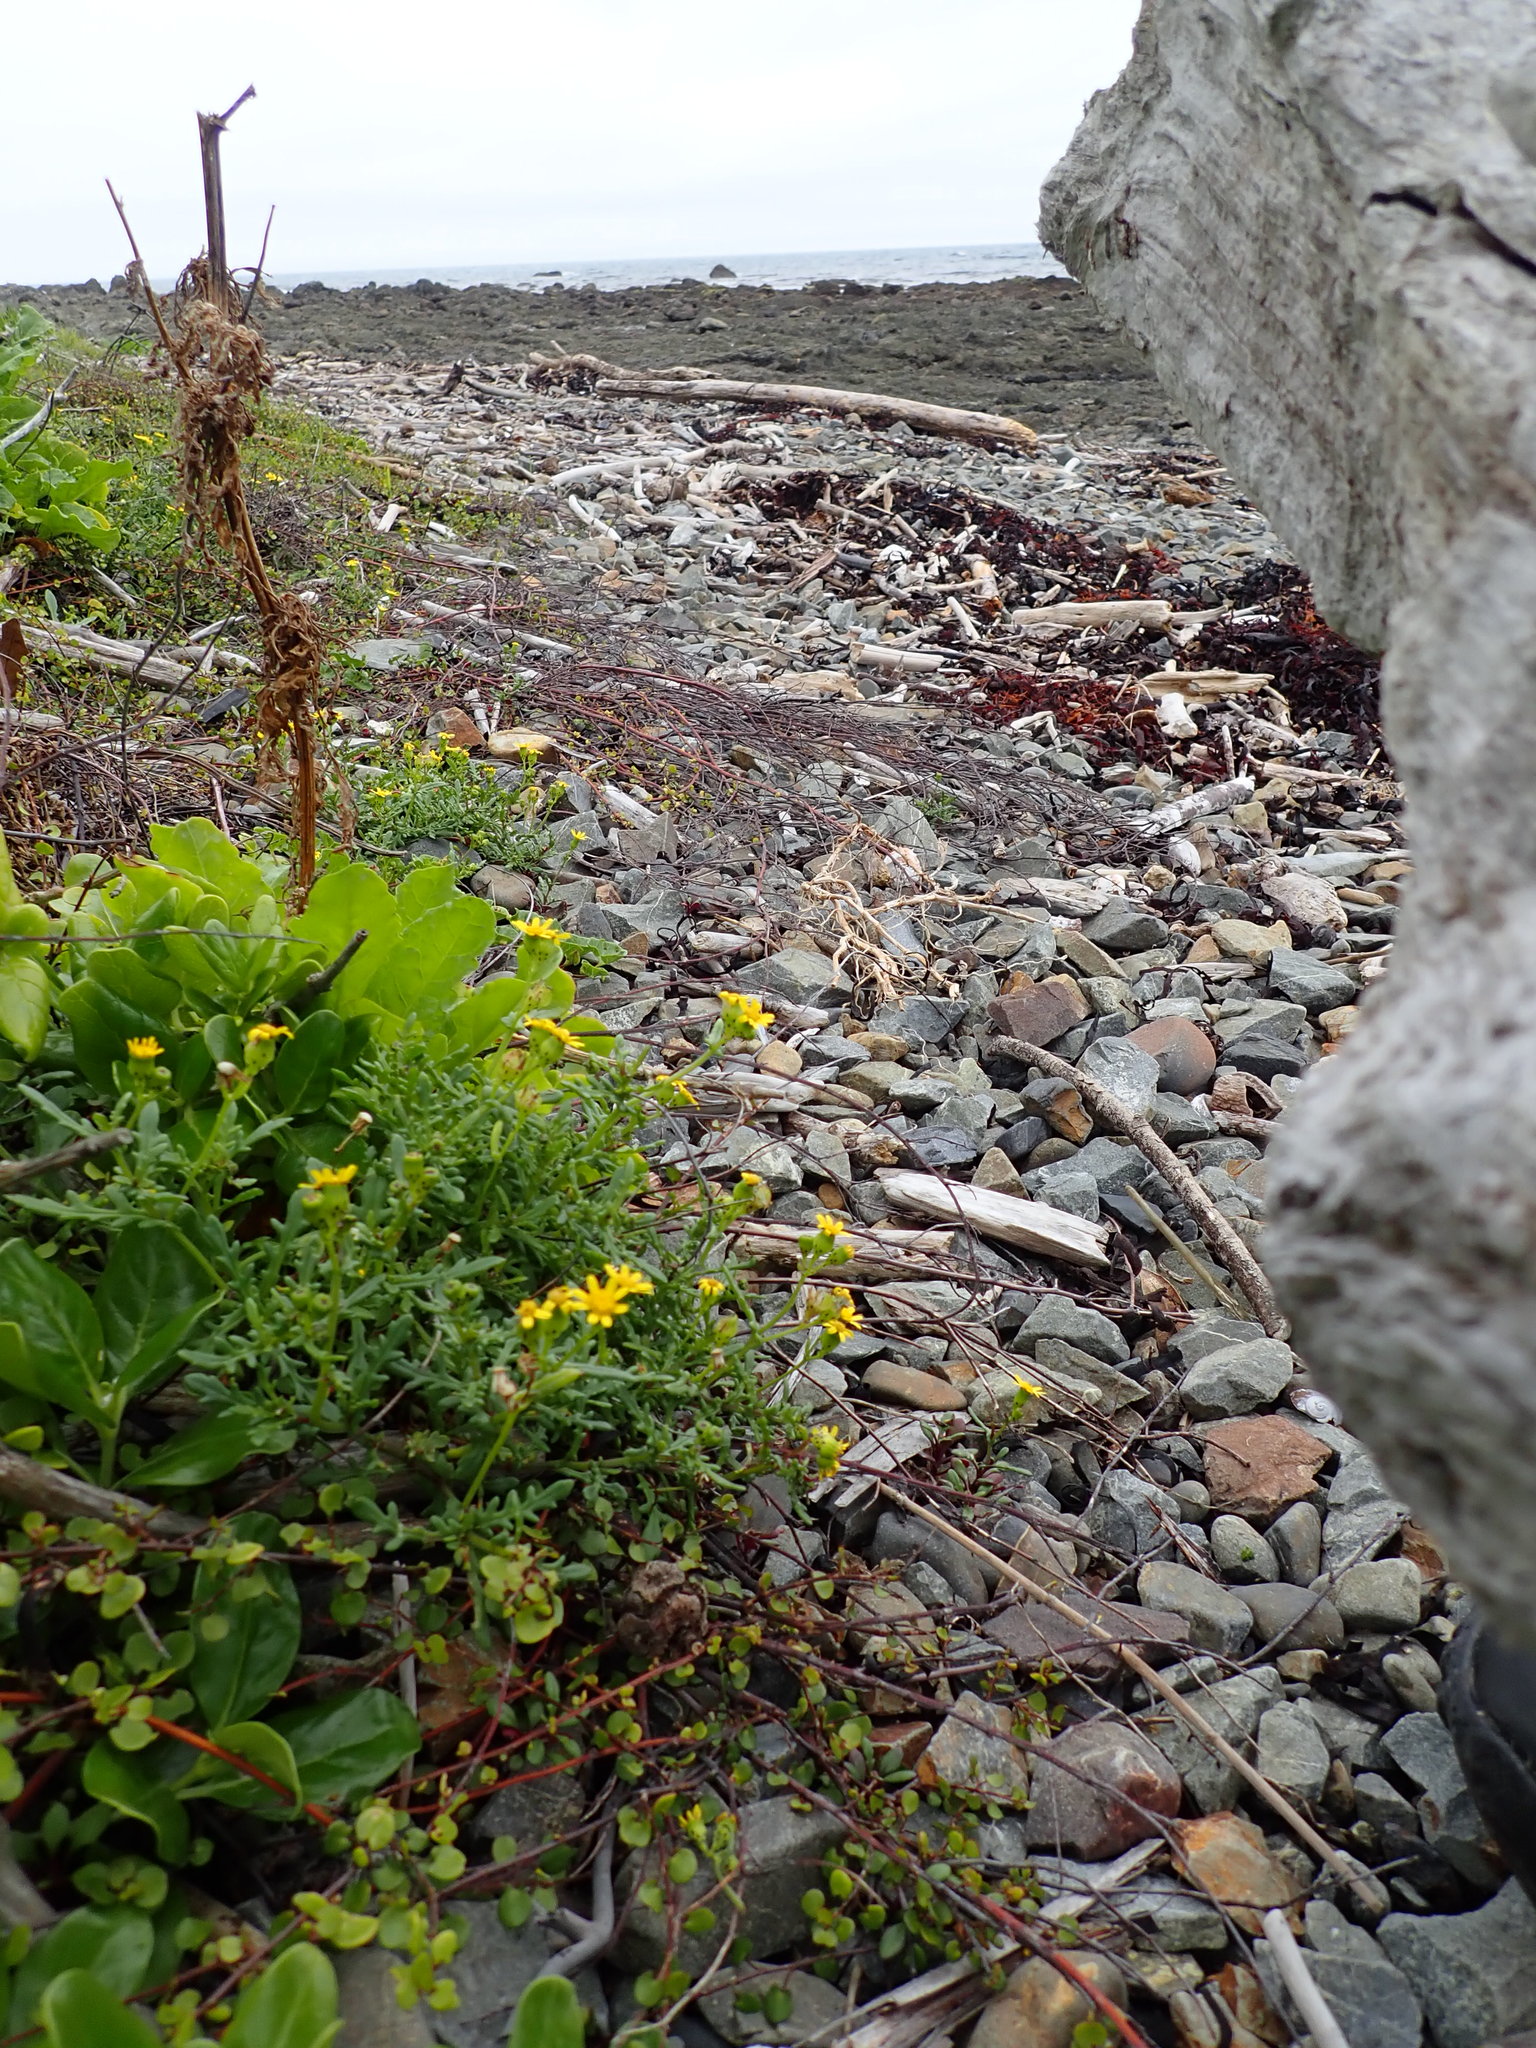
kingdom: Plantae
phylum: Tracheophyta
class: Magnoliopsida
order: Asterales
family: Asteraceae
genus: Senecio
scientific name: Senecio lautus
